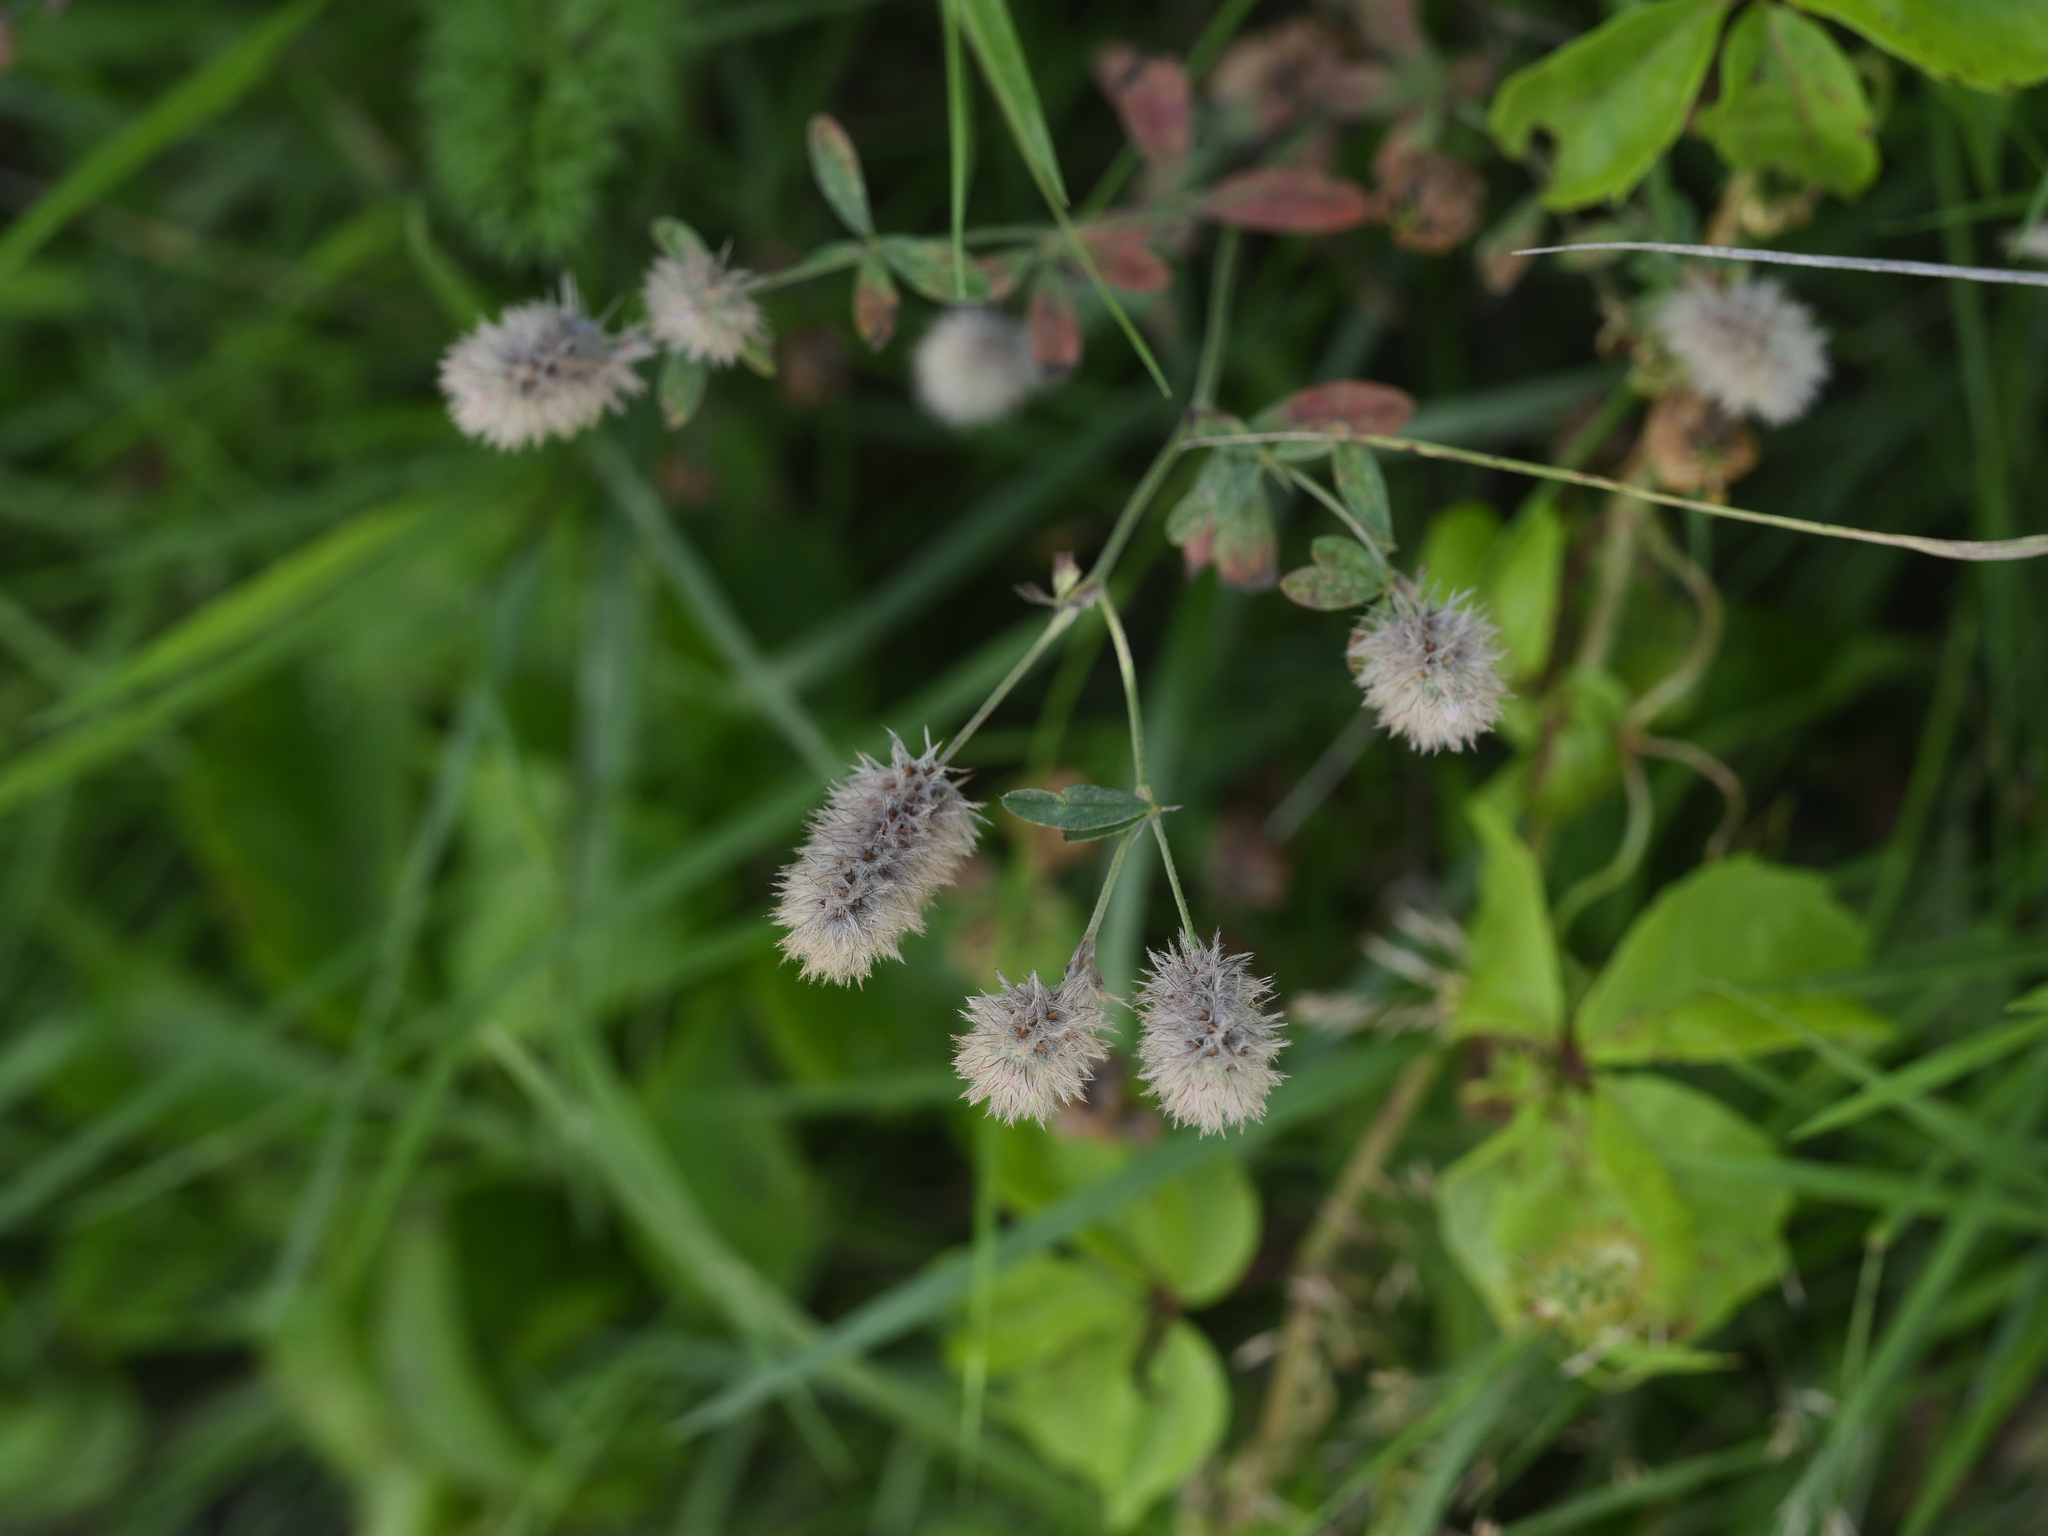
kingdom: Plantae
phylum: Tracheophyta
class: Magnoliopsida
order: Fabales
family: Fabaceae
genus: Trifolium
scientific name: Trifolium arvense
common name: Hare's-foot clover
